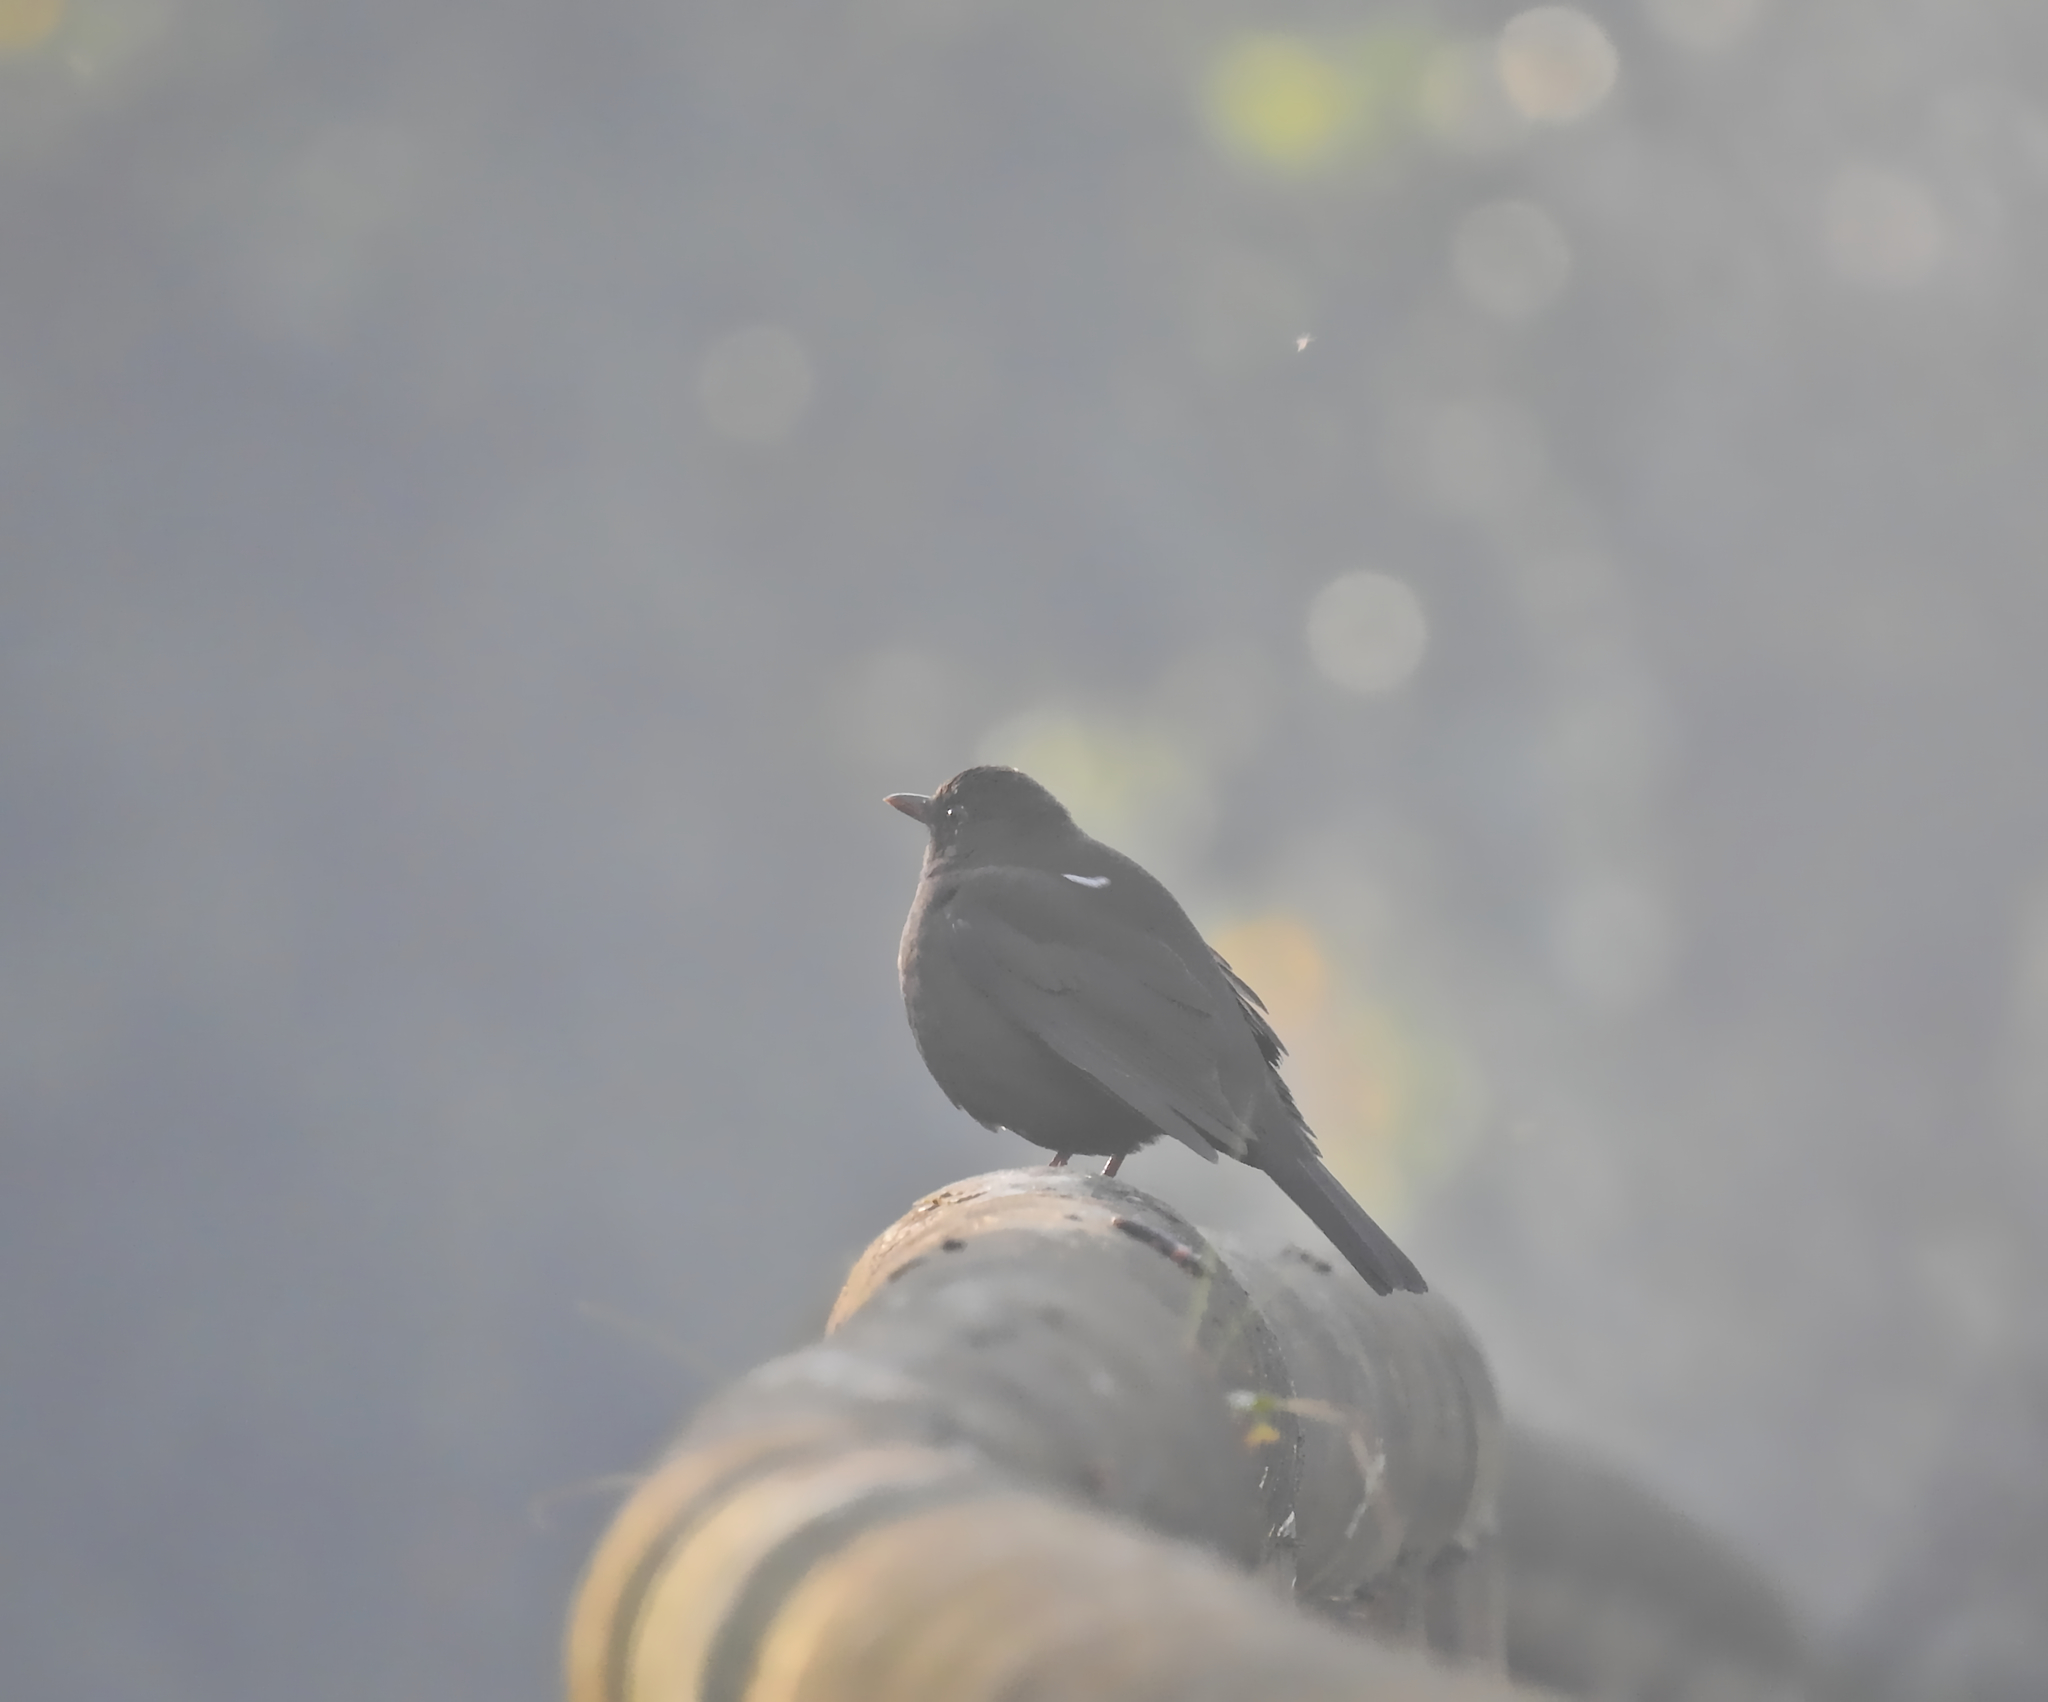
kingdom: Animalia
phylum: Chordata
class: Aves
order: Passeriformes
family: Turdidae
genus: Turdus
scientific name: Turdus merula
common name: Common blackbird
